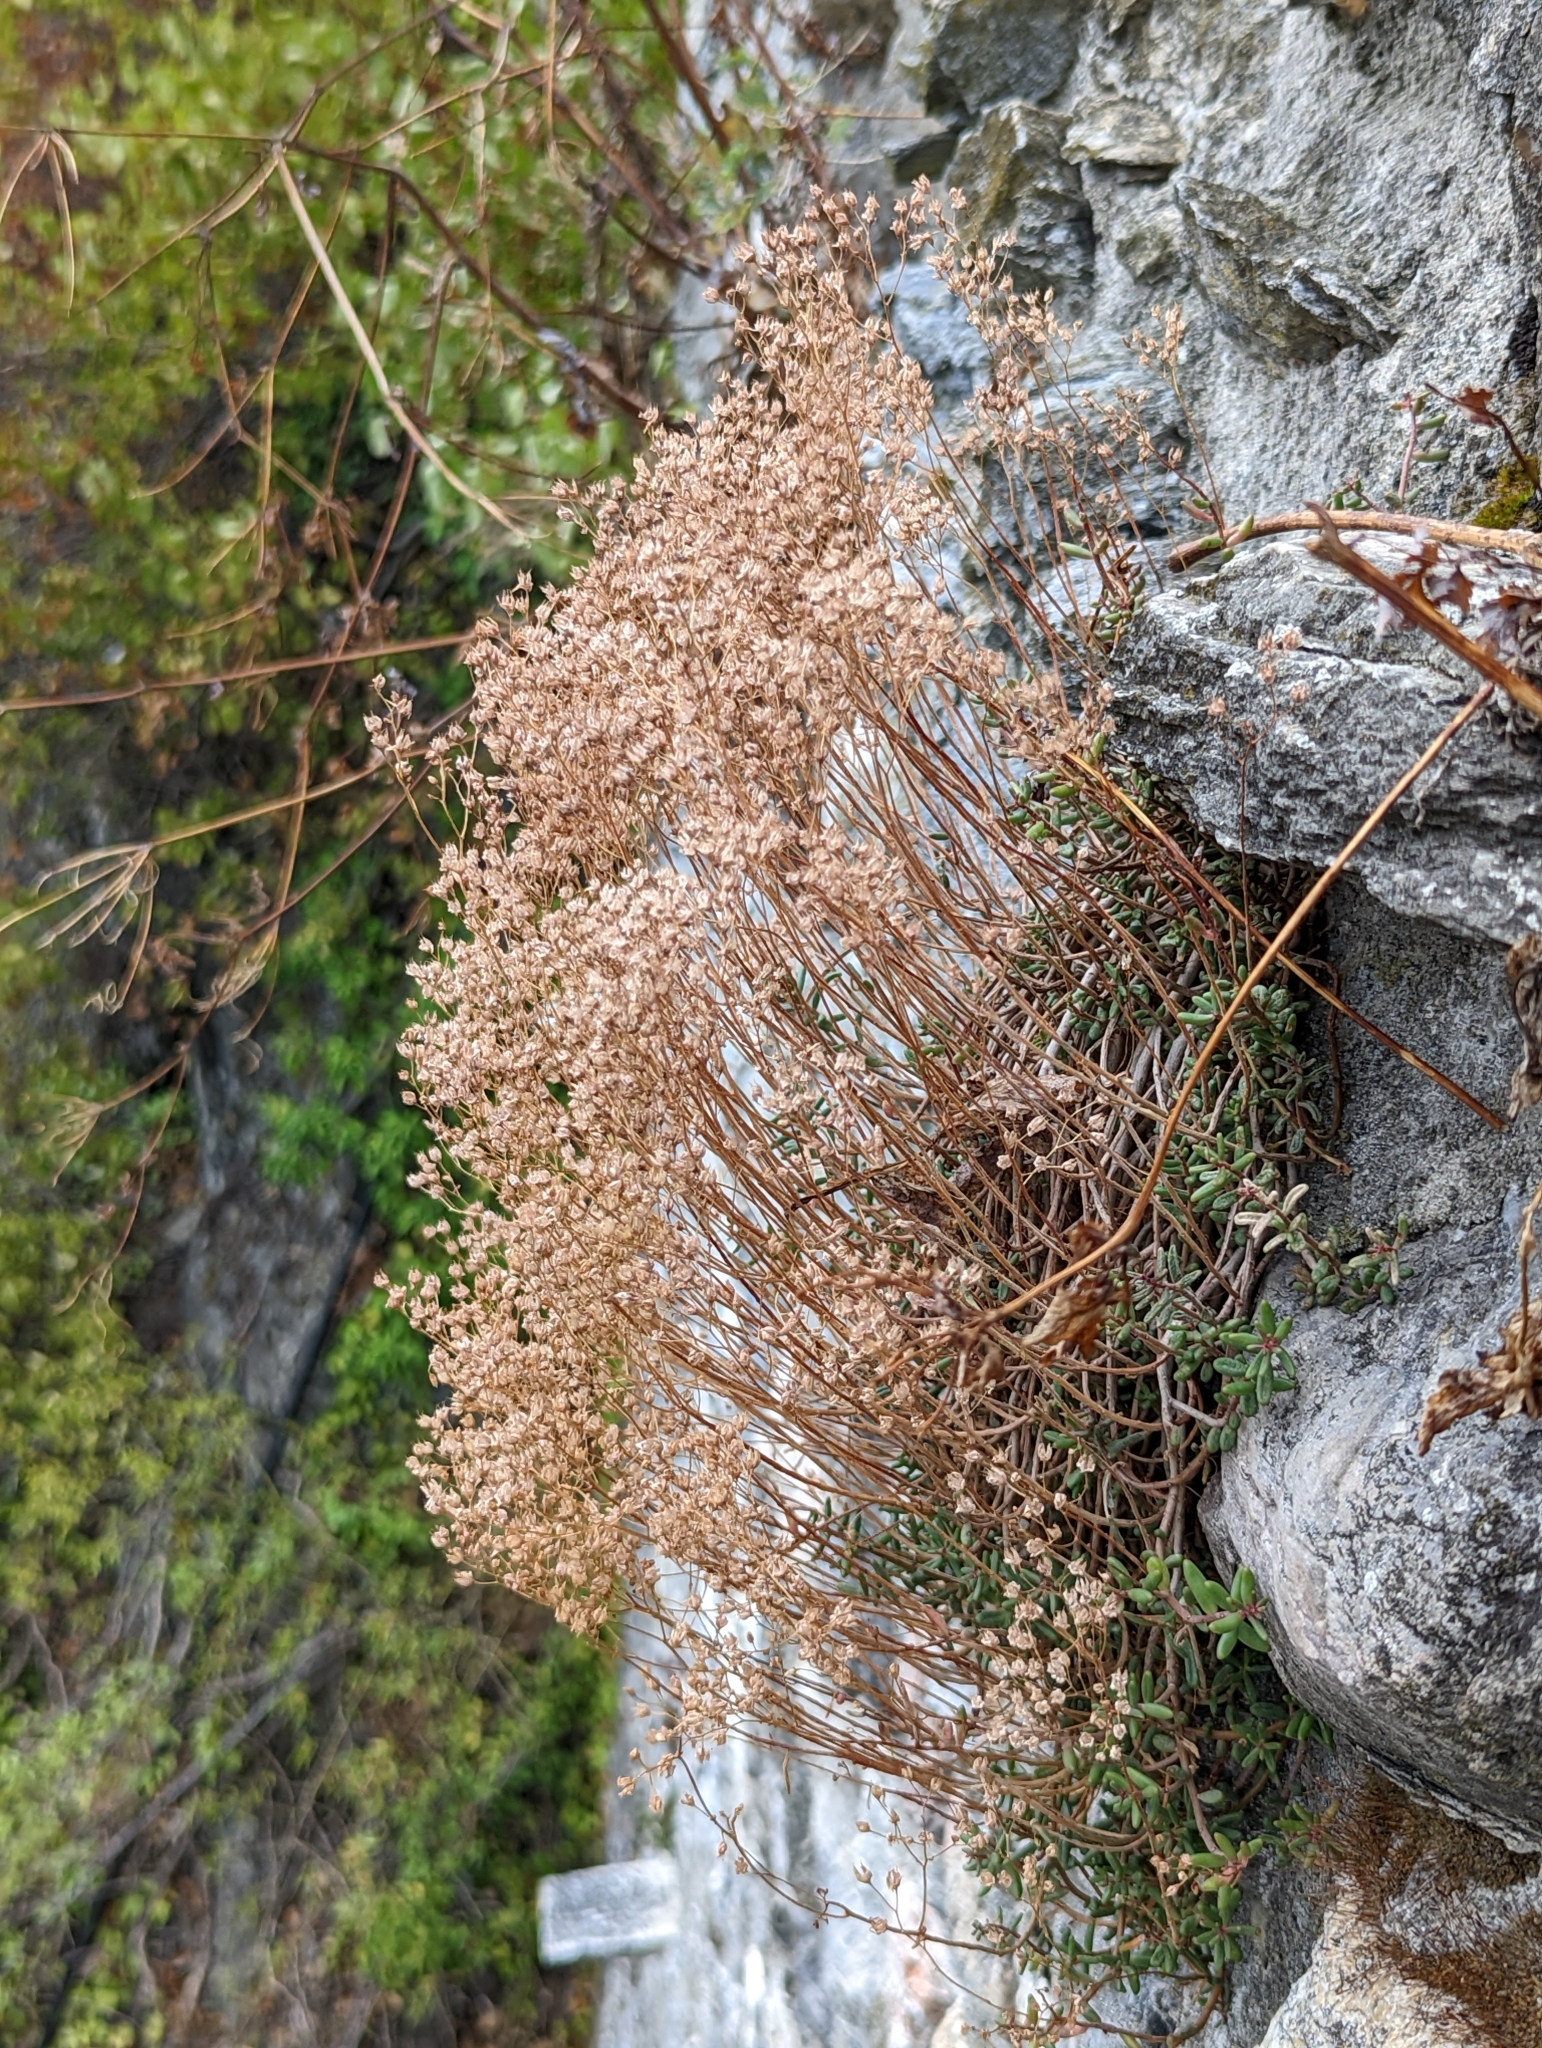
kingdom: Plantae
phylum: Tracheophyta
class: Magnoliopsida
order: Saxifragales
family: Crassulaceae
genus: Sedum
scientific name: Sedum album
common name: White stonecrop
